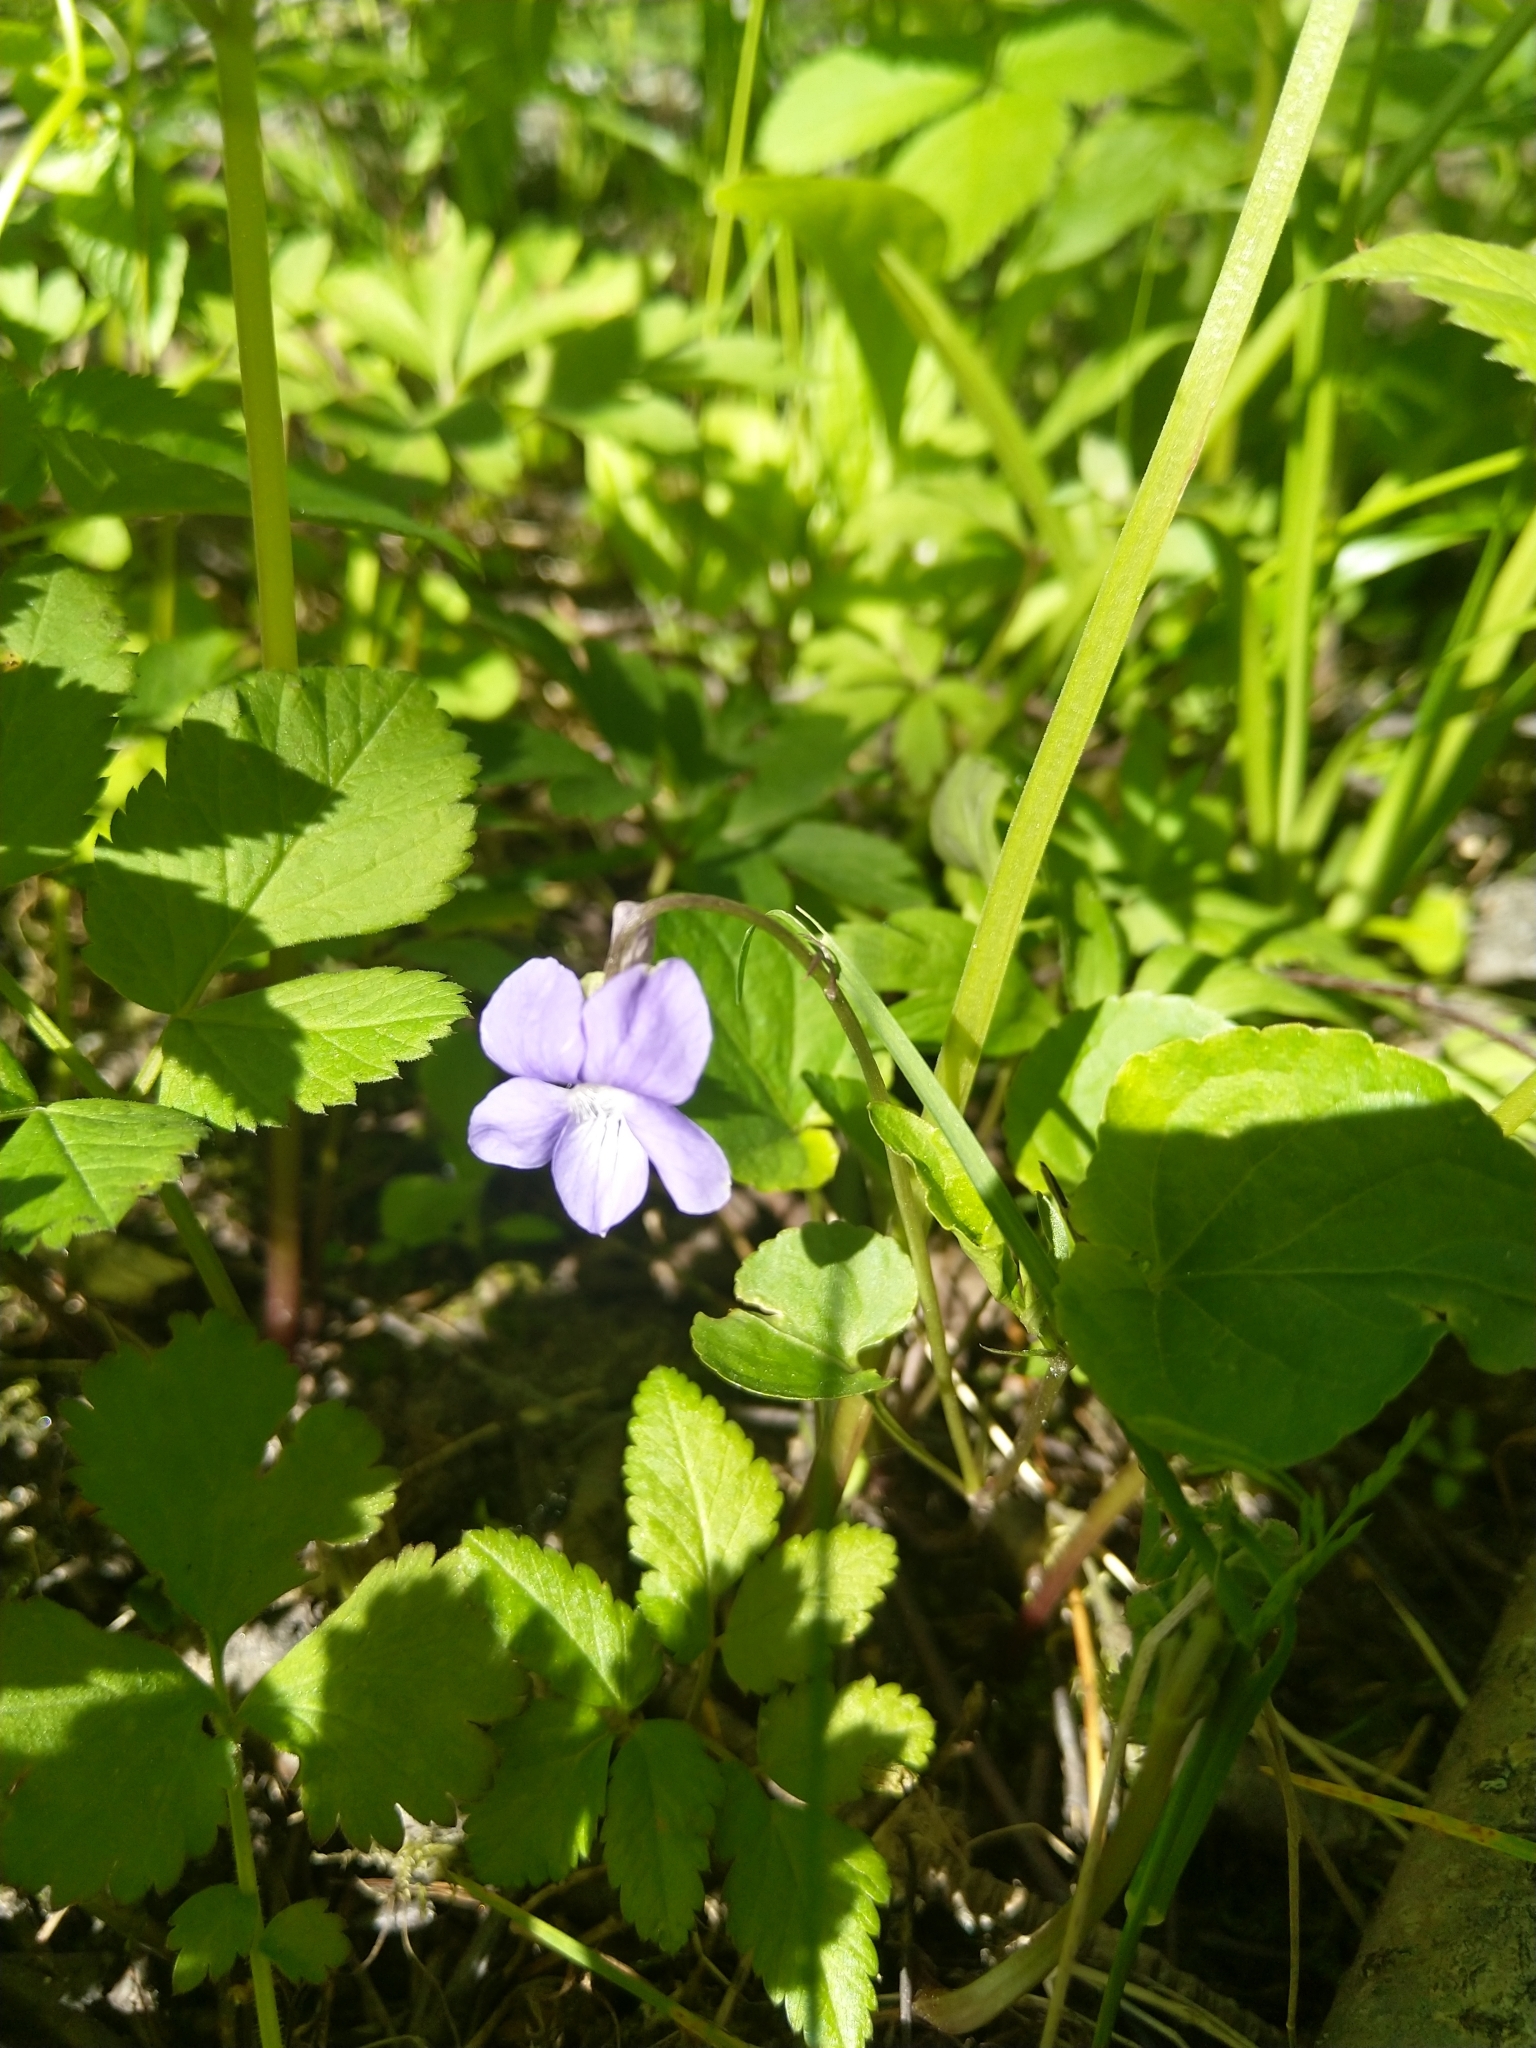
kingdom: Plantae
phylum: Tracheophyta
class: Magnoliopsida
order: Malpighiales
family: Violaceae
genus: Viola
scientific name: Viola riviniana
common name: Common dog-violet
